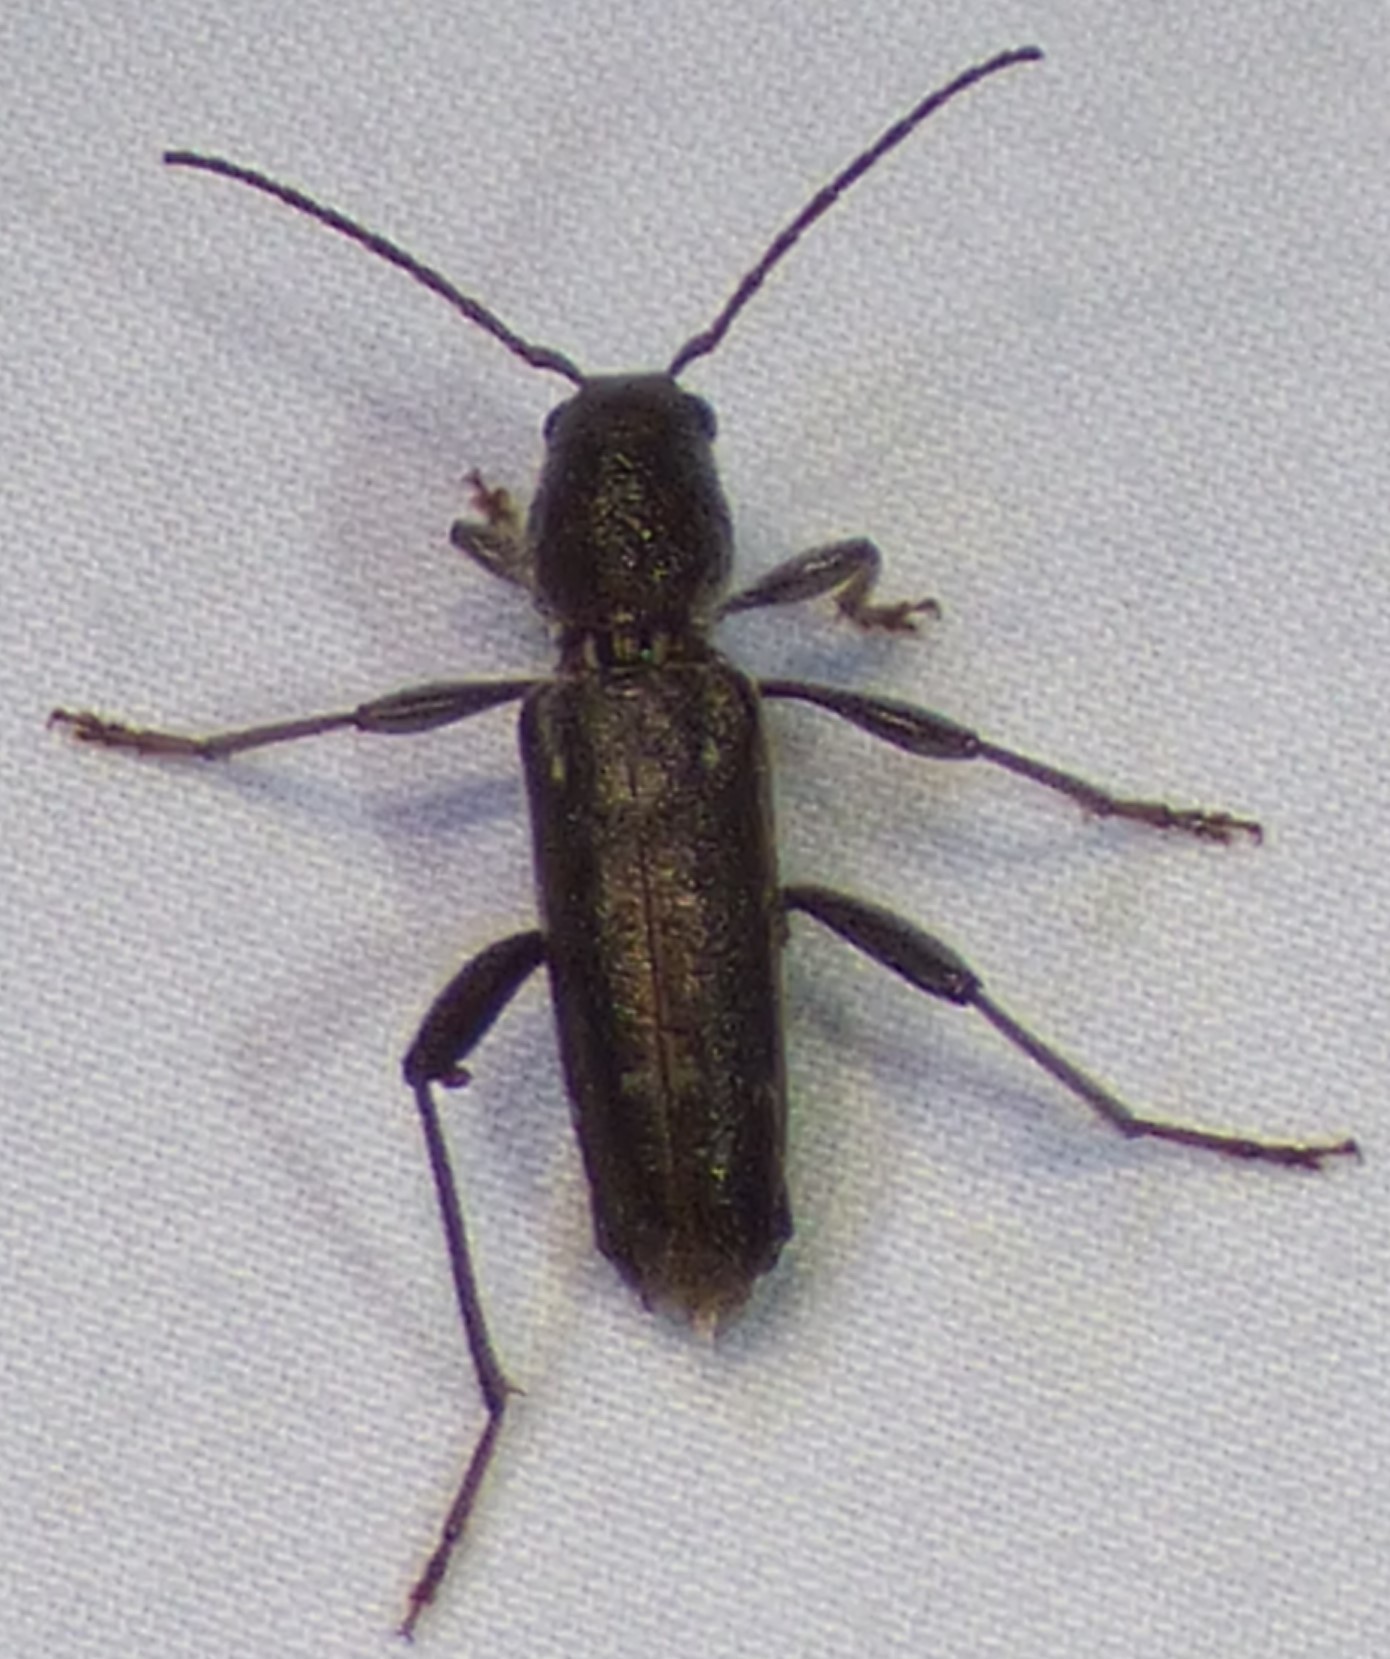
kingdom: Animalia
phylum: Arthropoda
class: Insecta
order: Coleoptera
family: Cerambycidae
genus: Xylotrechus
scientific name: Xylotrechus sagittatus
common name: Arrowhead borer
